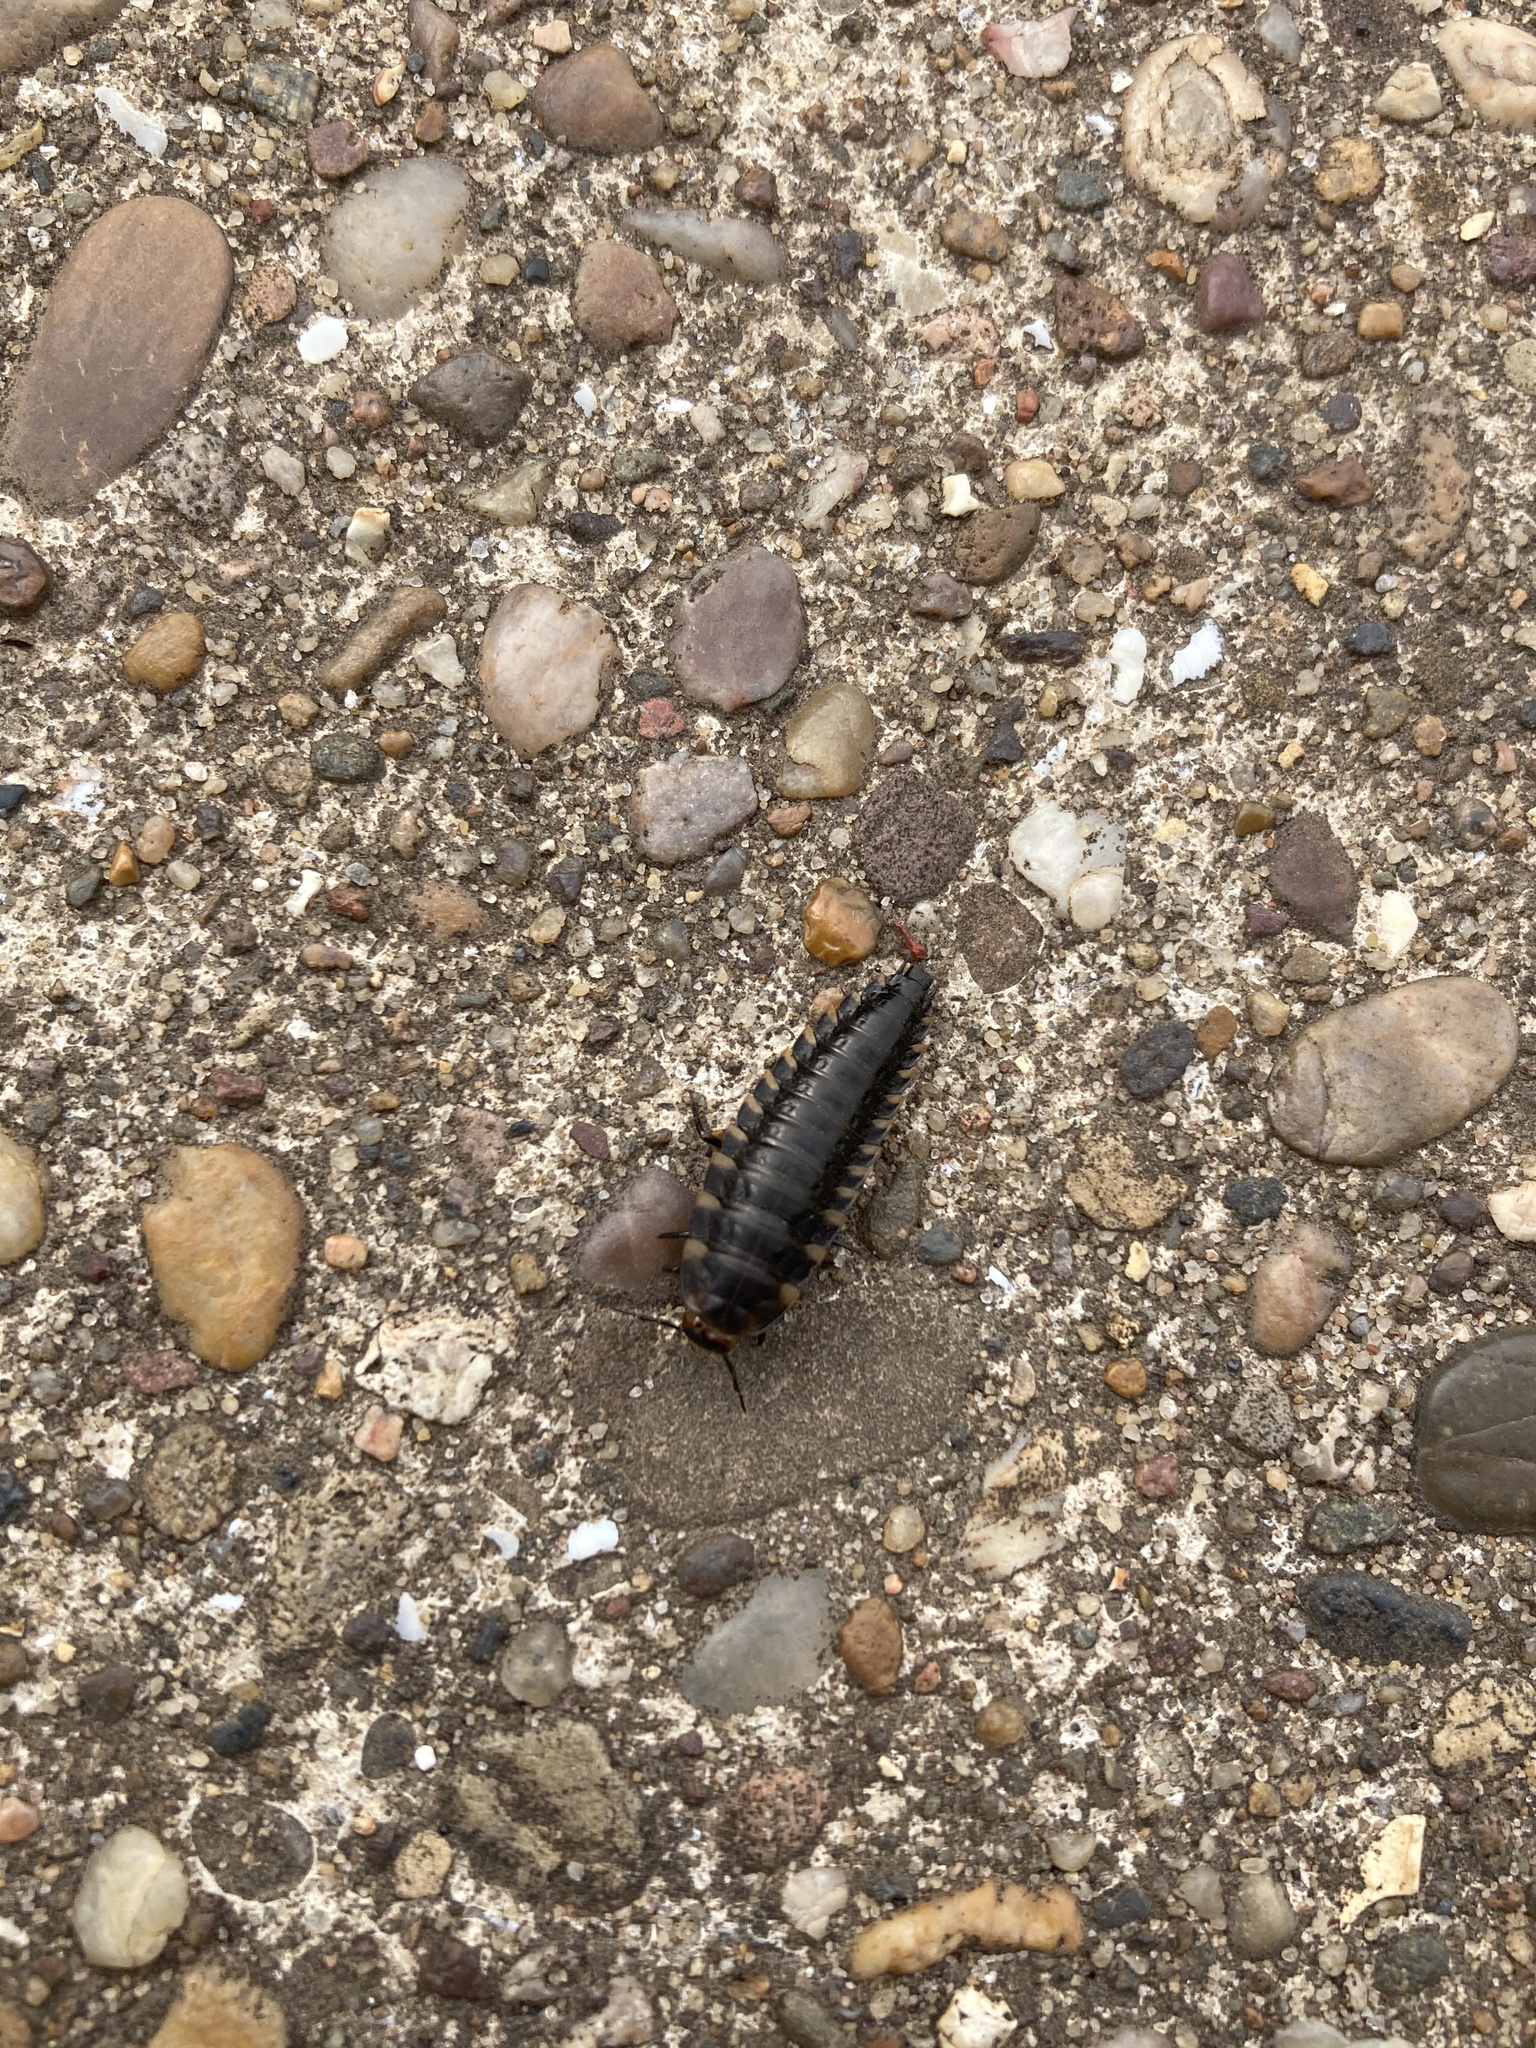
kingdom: Animalia
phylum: Arthropoda
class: Insecta
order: Coleoptera
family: Staphylinidae
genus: Silpha
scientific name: Silpha tristis
